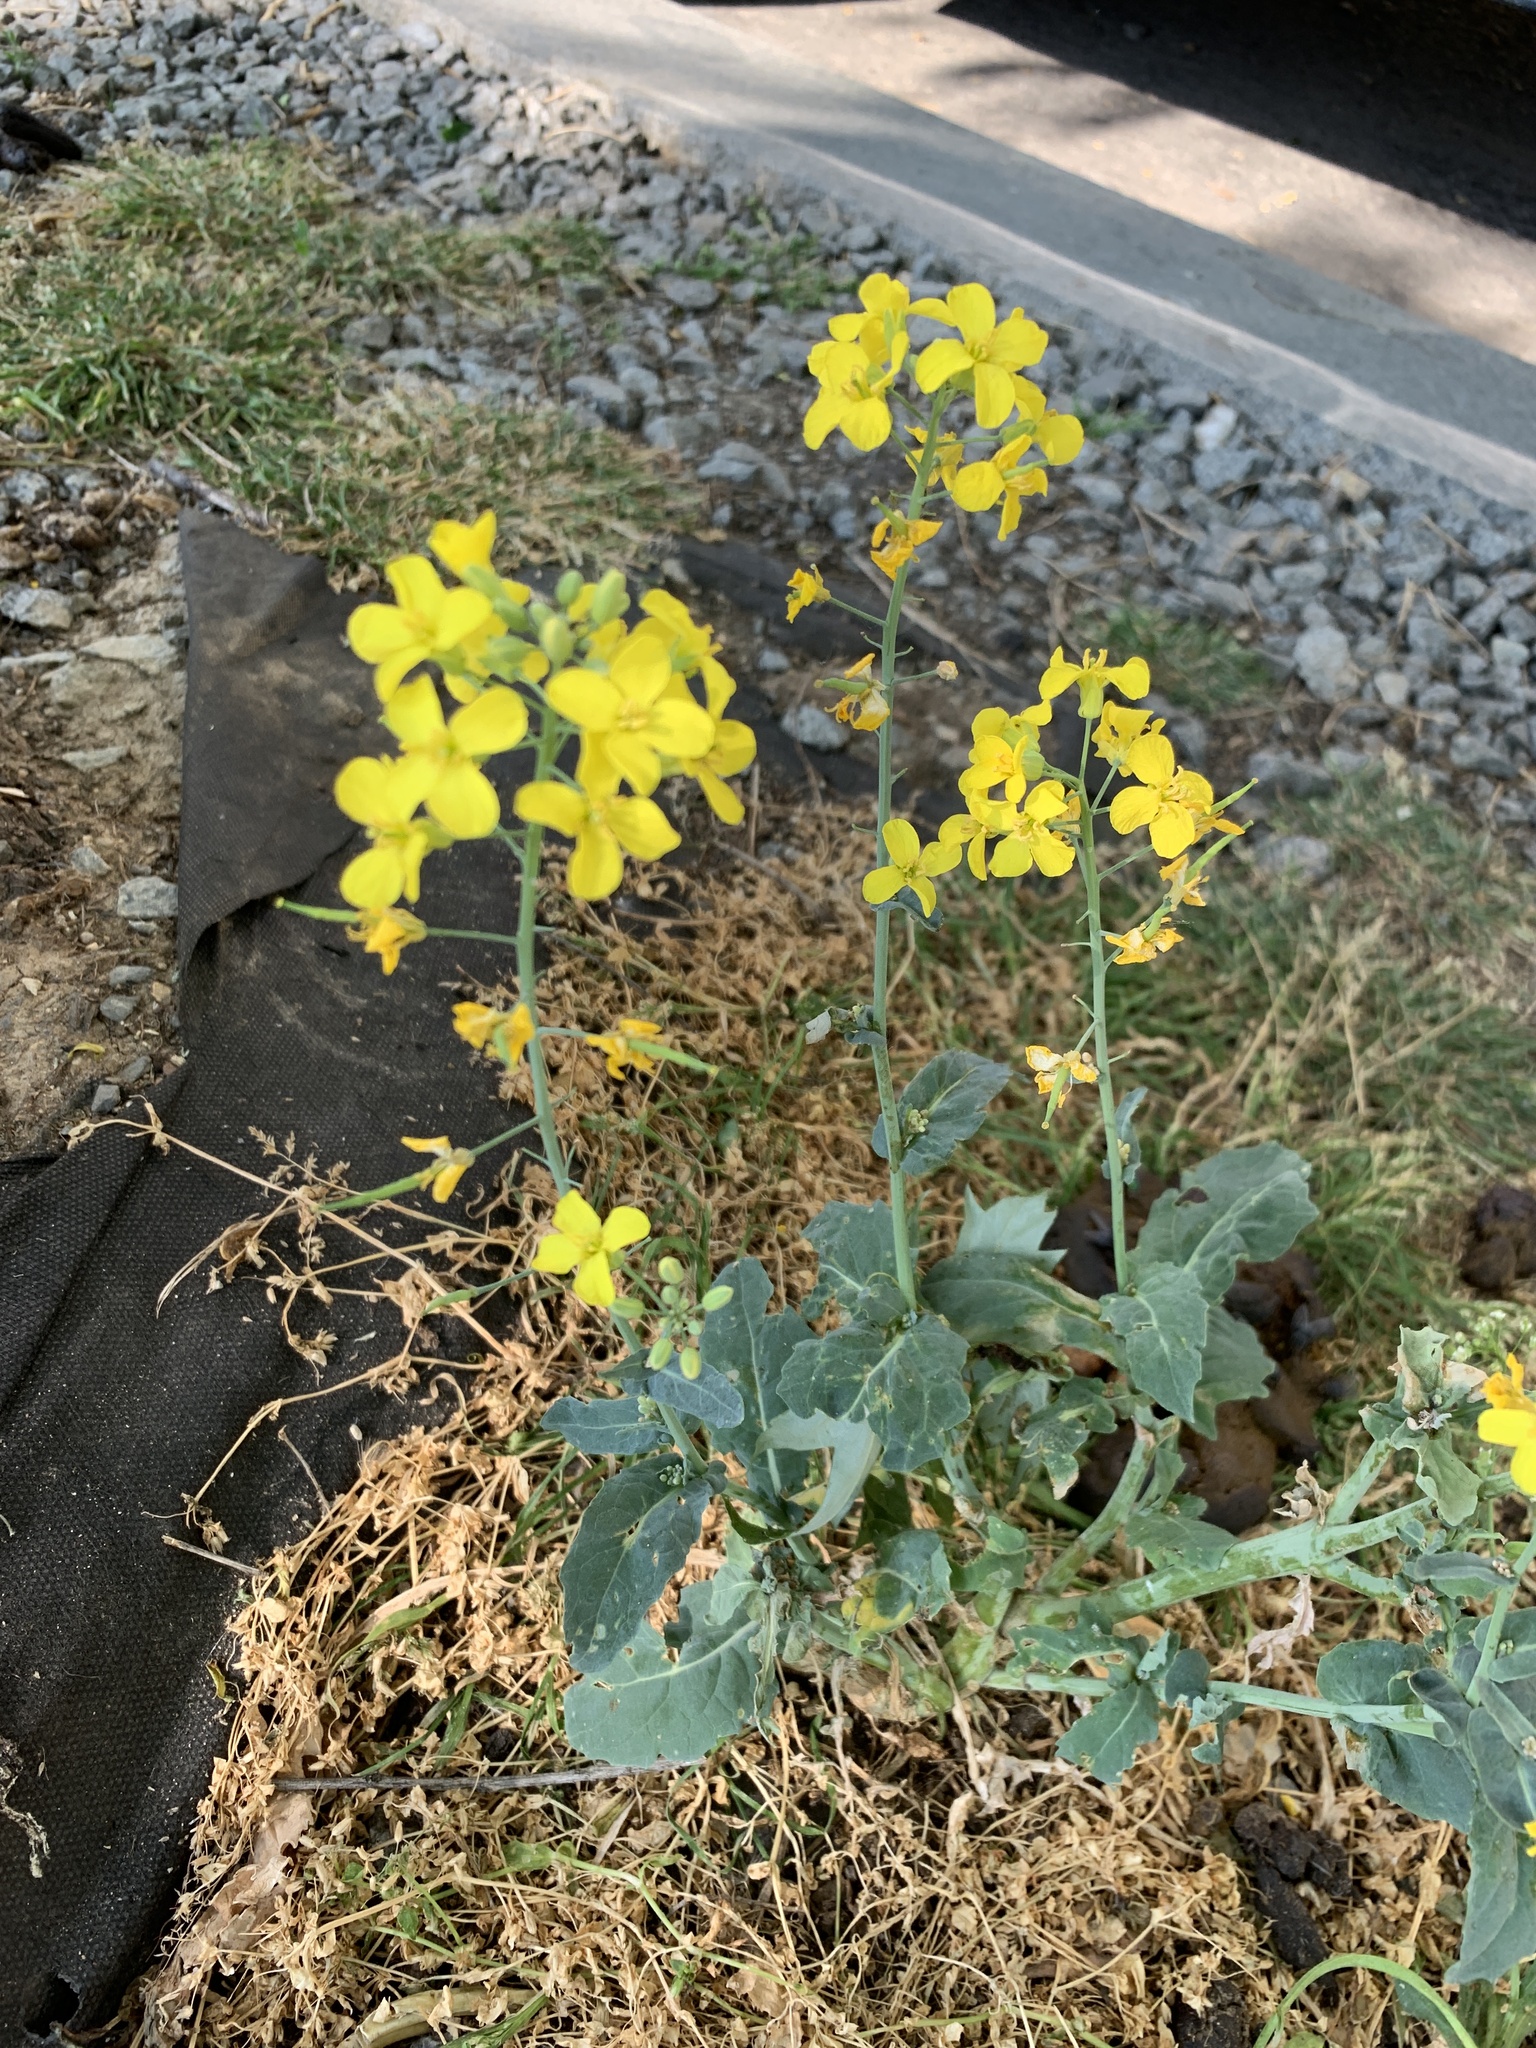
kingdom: Plantae
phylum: Tracheophyta
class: Magnoliopsida
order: Brassicales
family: Brassicaceae
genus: Brassica
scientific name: Brassica napus
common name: Rape
